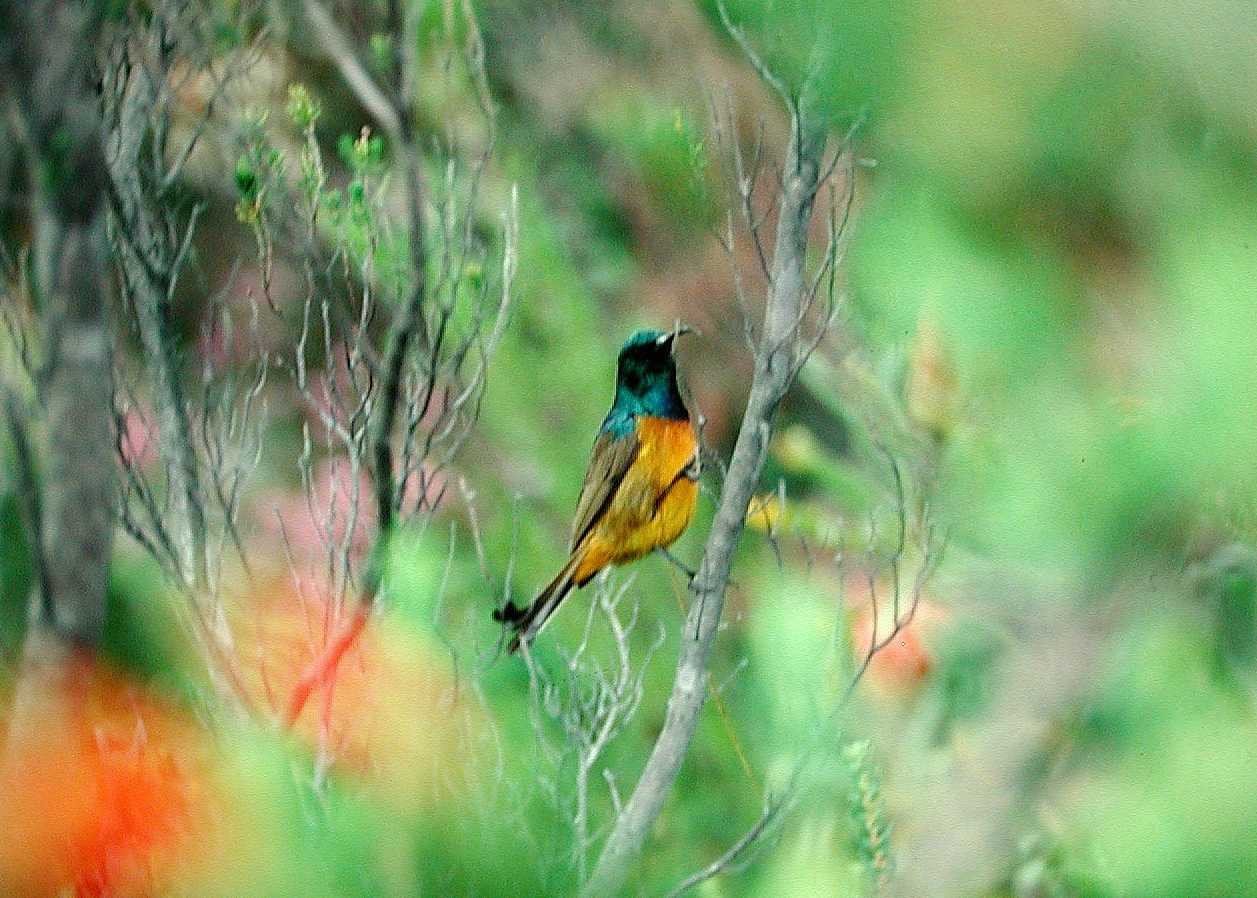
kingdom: Animalia
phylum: Chordata
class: Aves
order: Passeriformes
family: Nectariniidae
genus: Anthobaphes
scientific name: Anthobaphes violacea
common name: Orange-breasted sunbird
